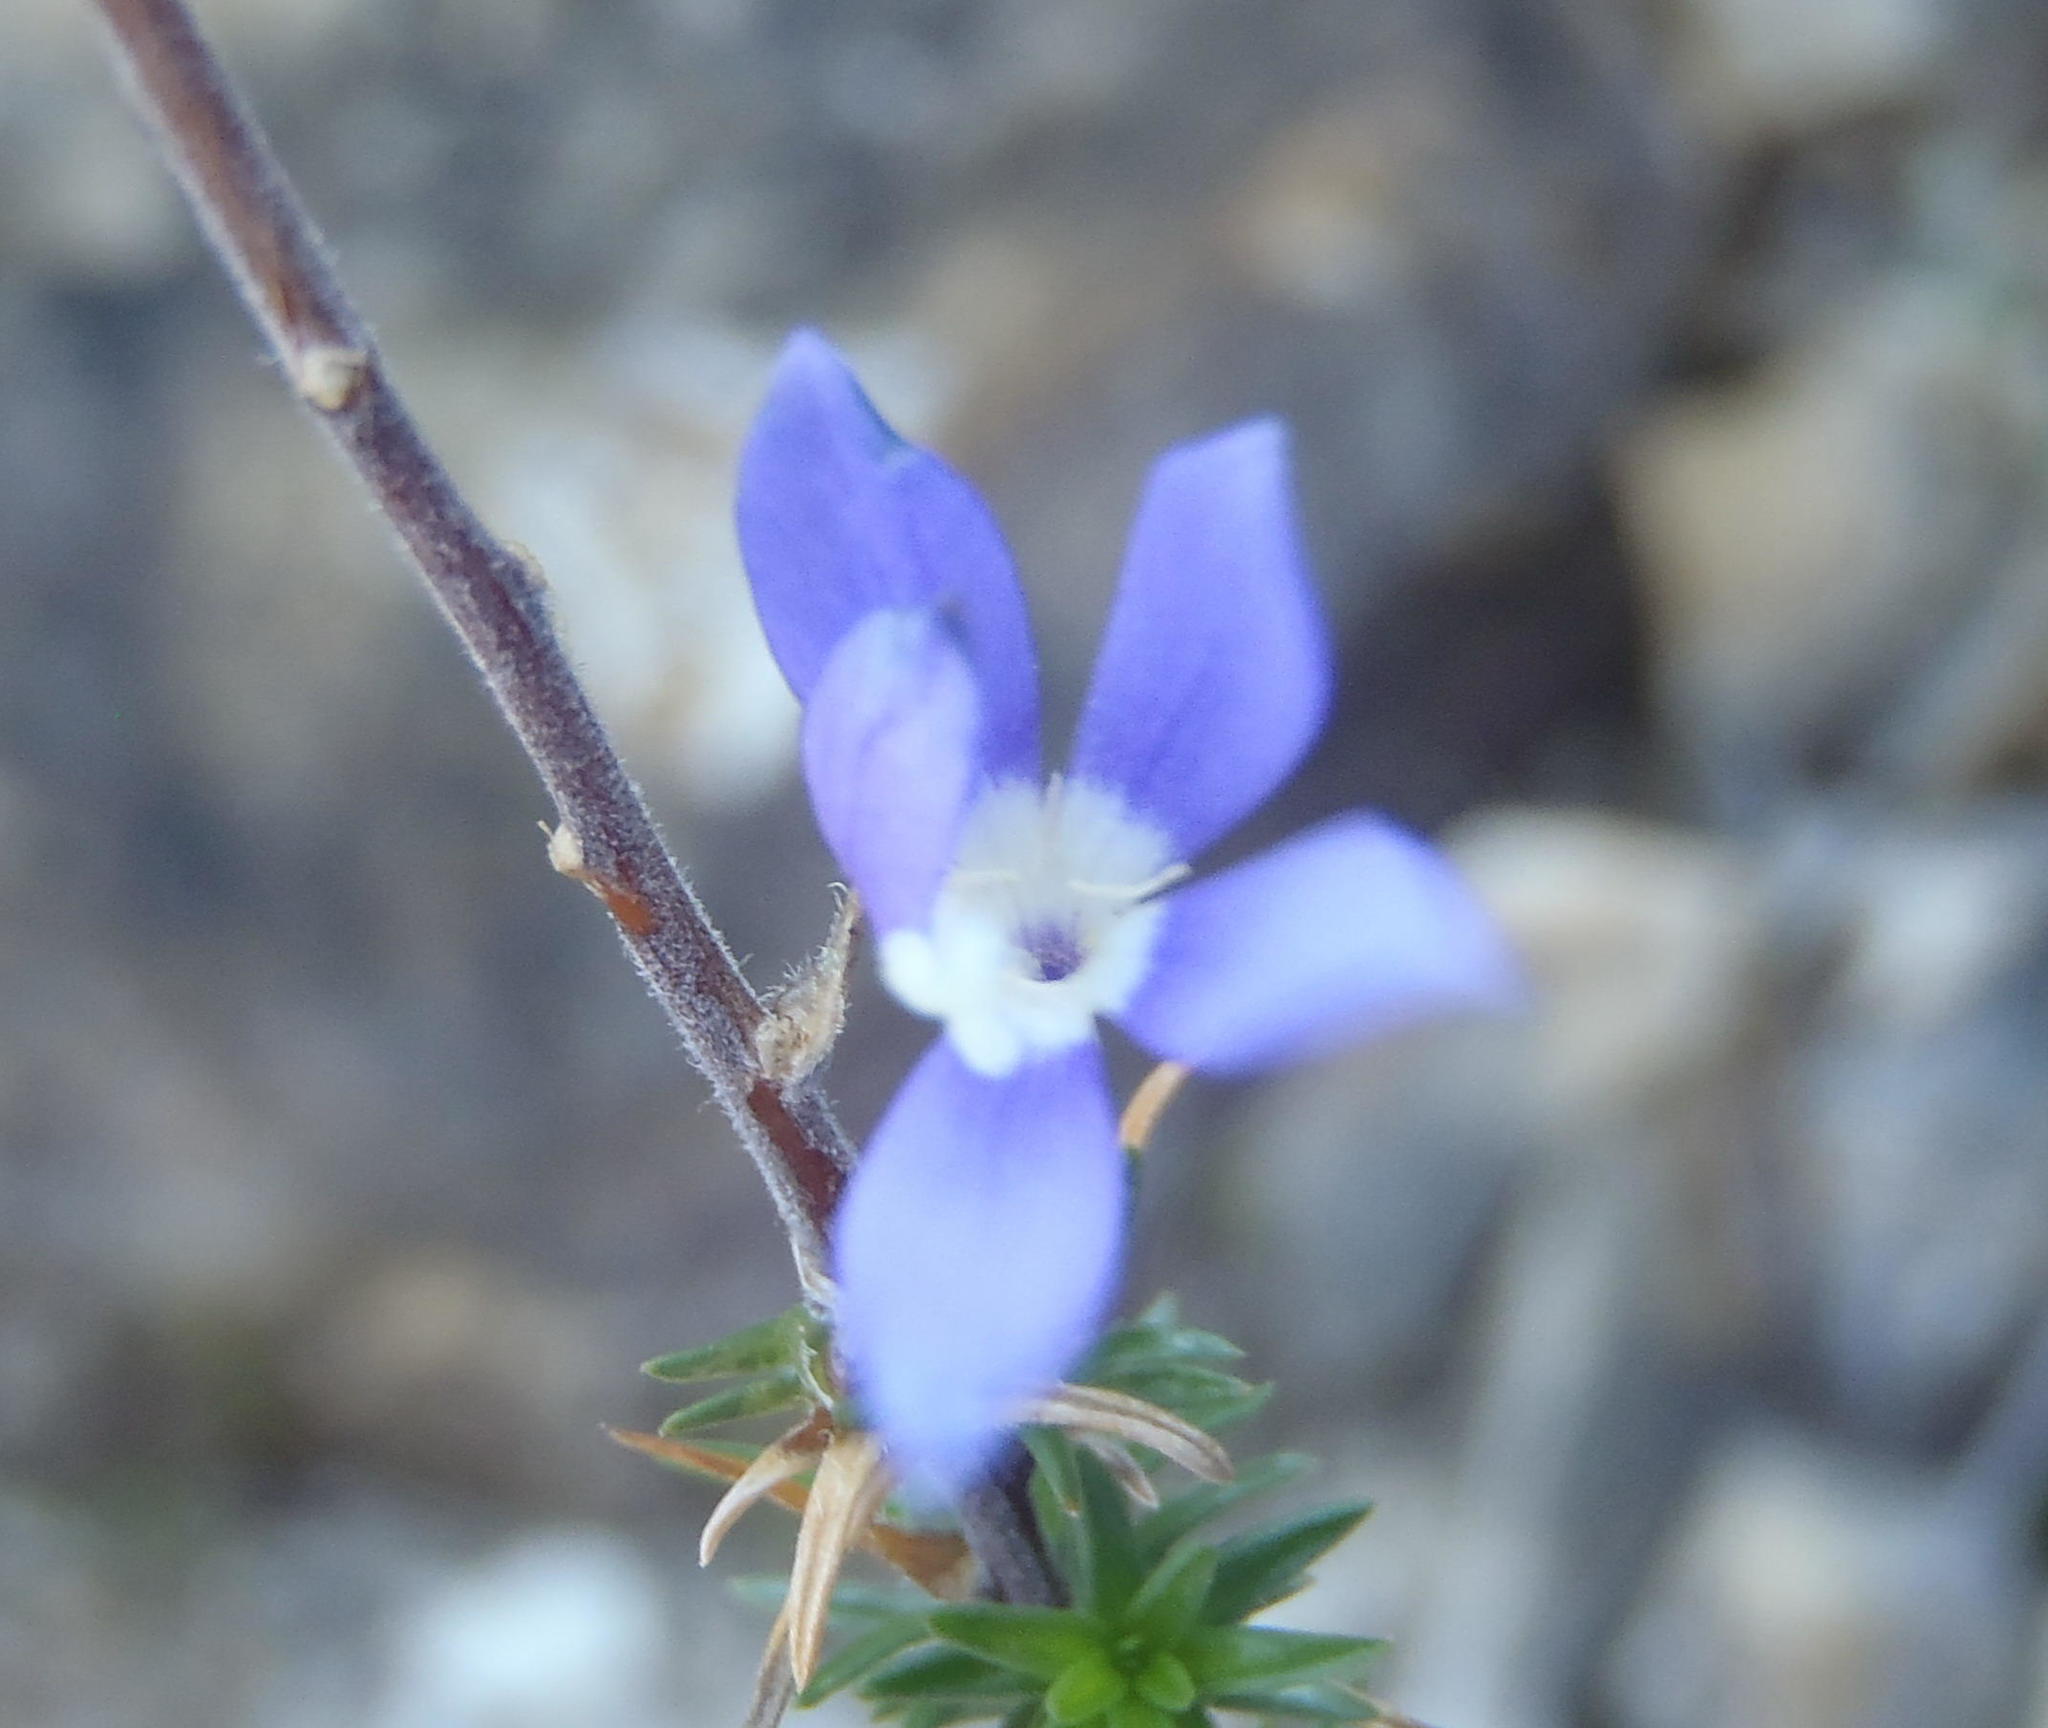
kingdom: Plantae
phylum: Tracheophyta
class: Magnoliopsida
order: Asterales
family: Campanulaceae
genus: Theilera
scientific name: Theilera guthriei
